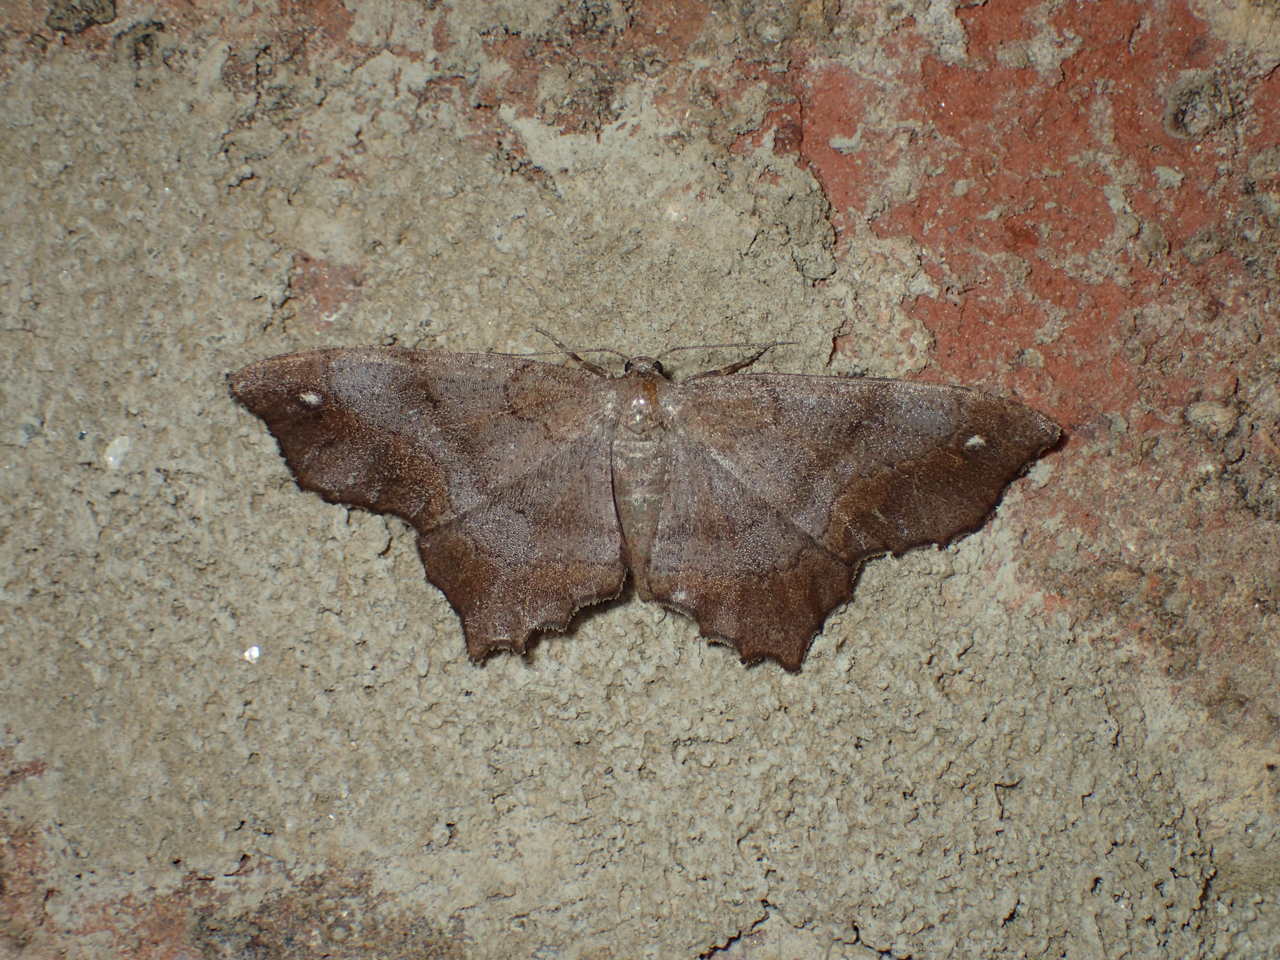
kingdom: Animalia
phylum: Arthropoda
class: Insecta
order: Lepidoptera
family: Geometridae
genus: Hypagyrtis
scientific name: Hypagyrtis
